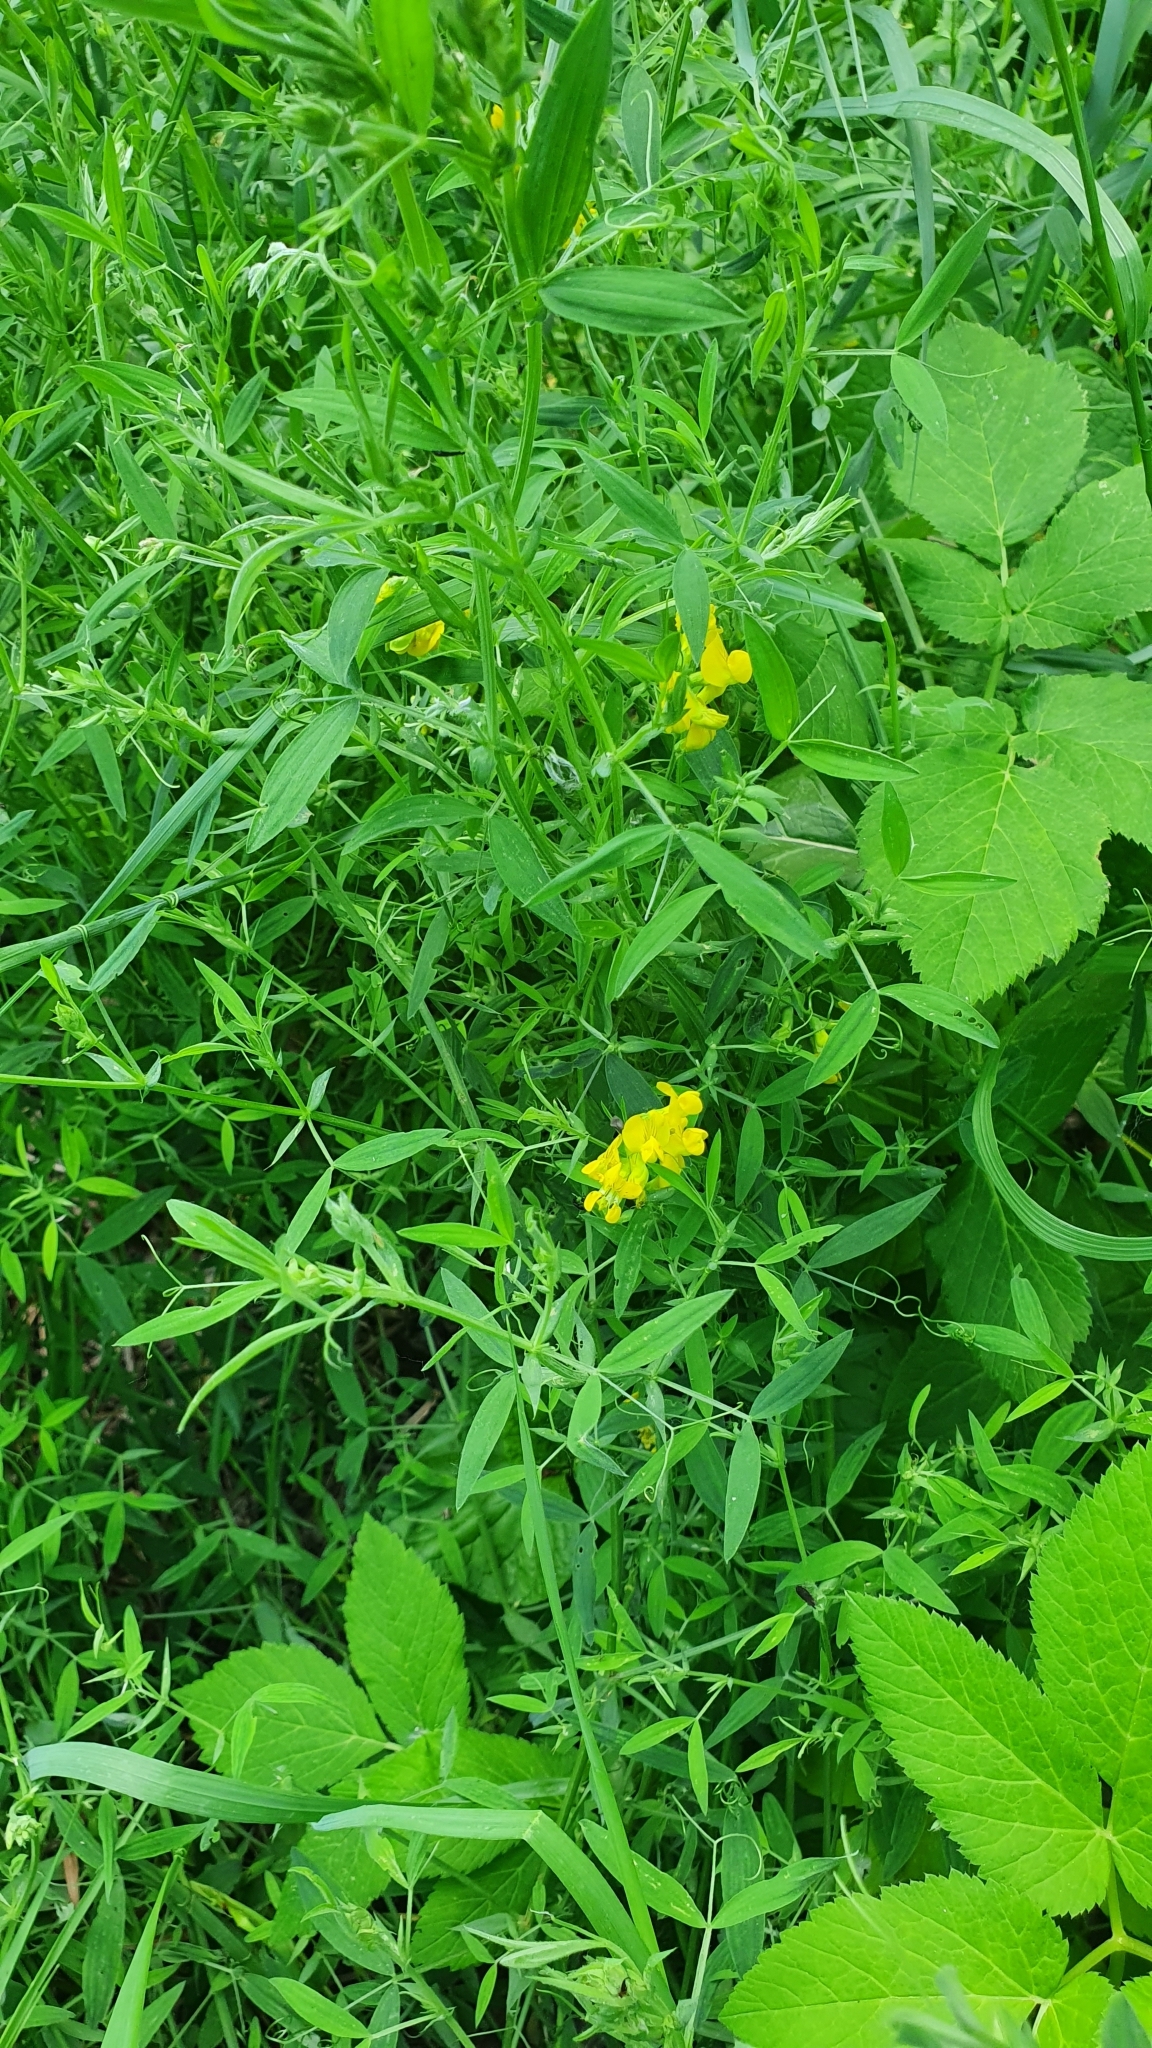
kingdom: Plantae
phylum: Tracheophyta
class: Magnoliopsida
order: Fabales
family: Fabaceae
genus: Lathyrus
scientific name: Lathyrus pratensis
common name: Meadow vetchling
